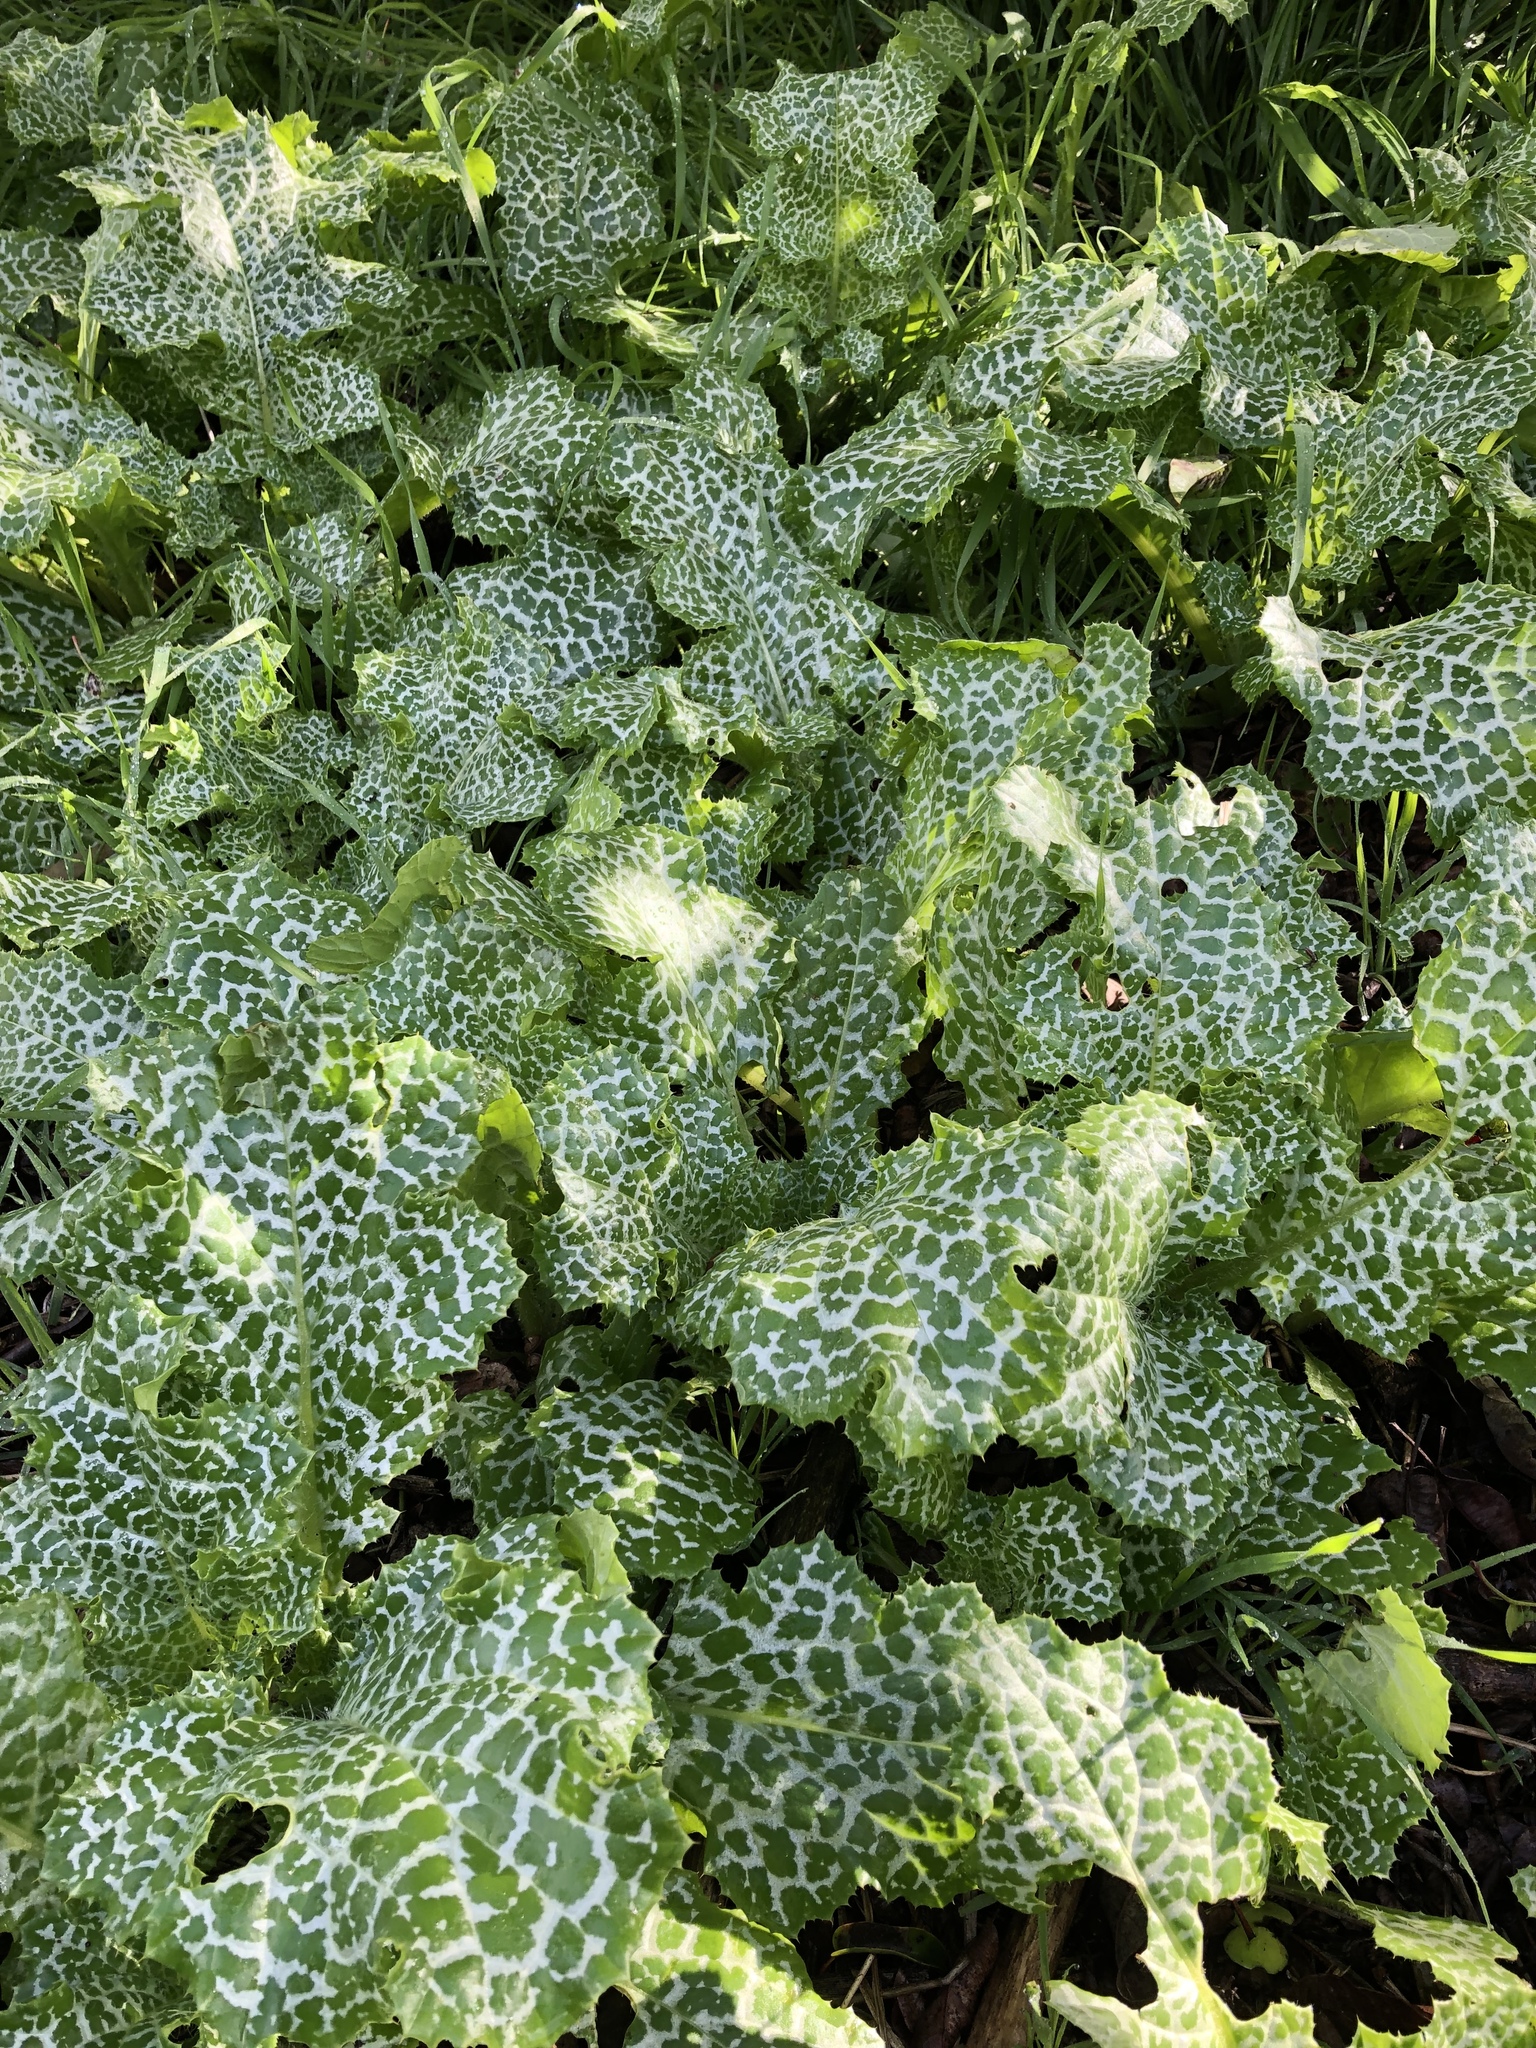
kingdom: Plantae
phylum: Tracheophyta
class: Magnoliopsida
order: Asterales
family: Asteraceae
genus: Silybum
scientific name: Silybum marianum
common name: Milk thistle
